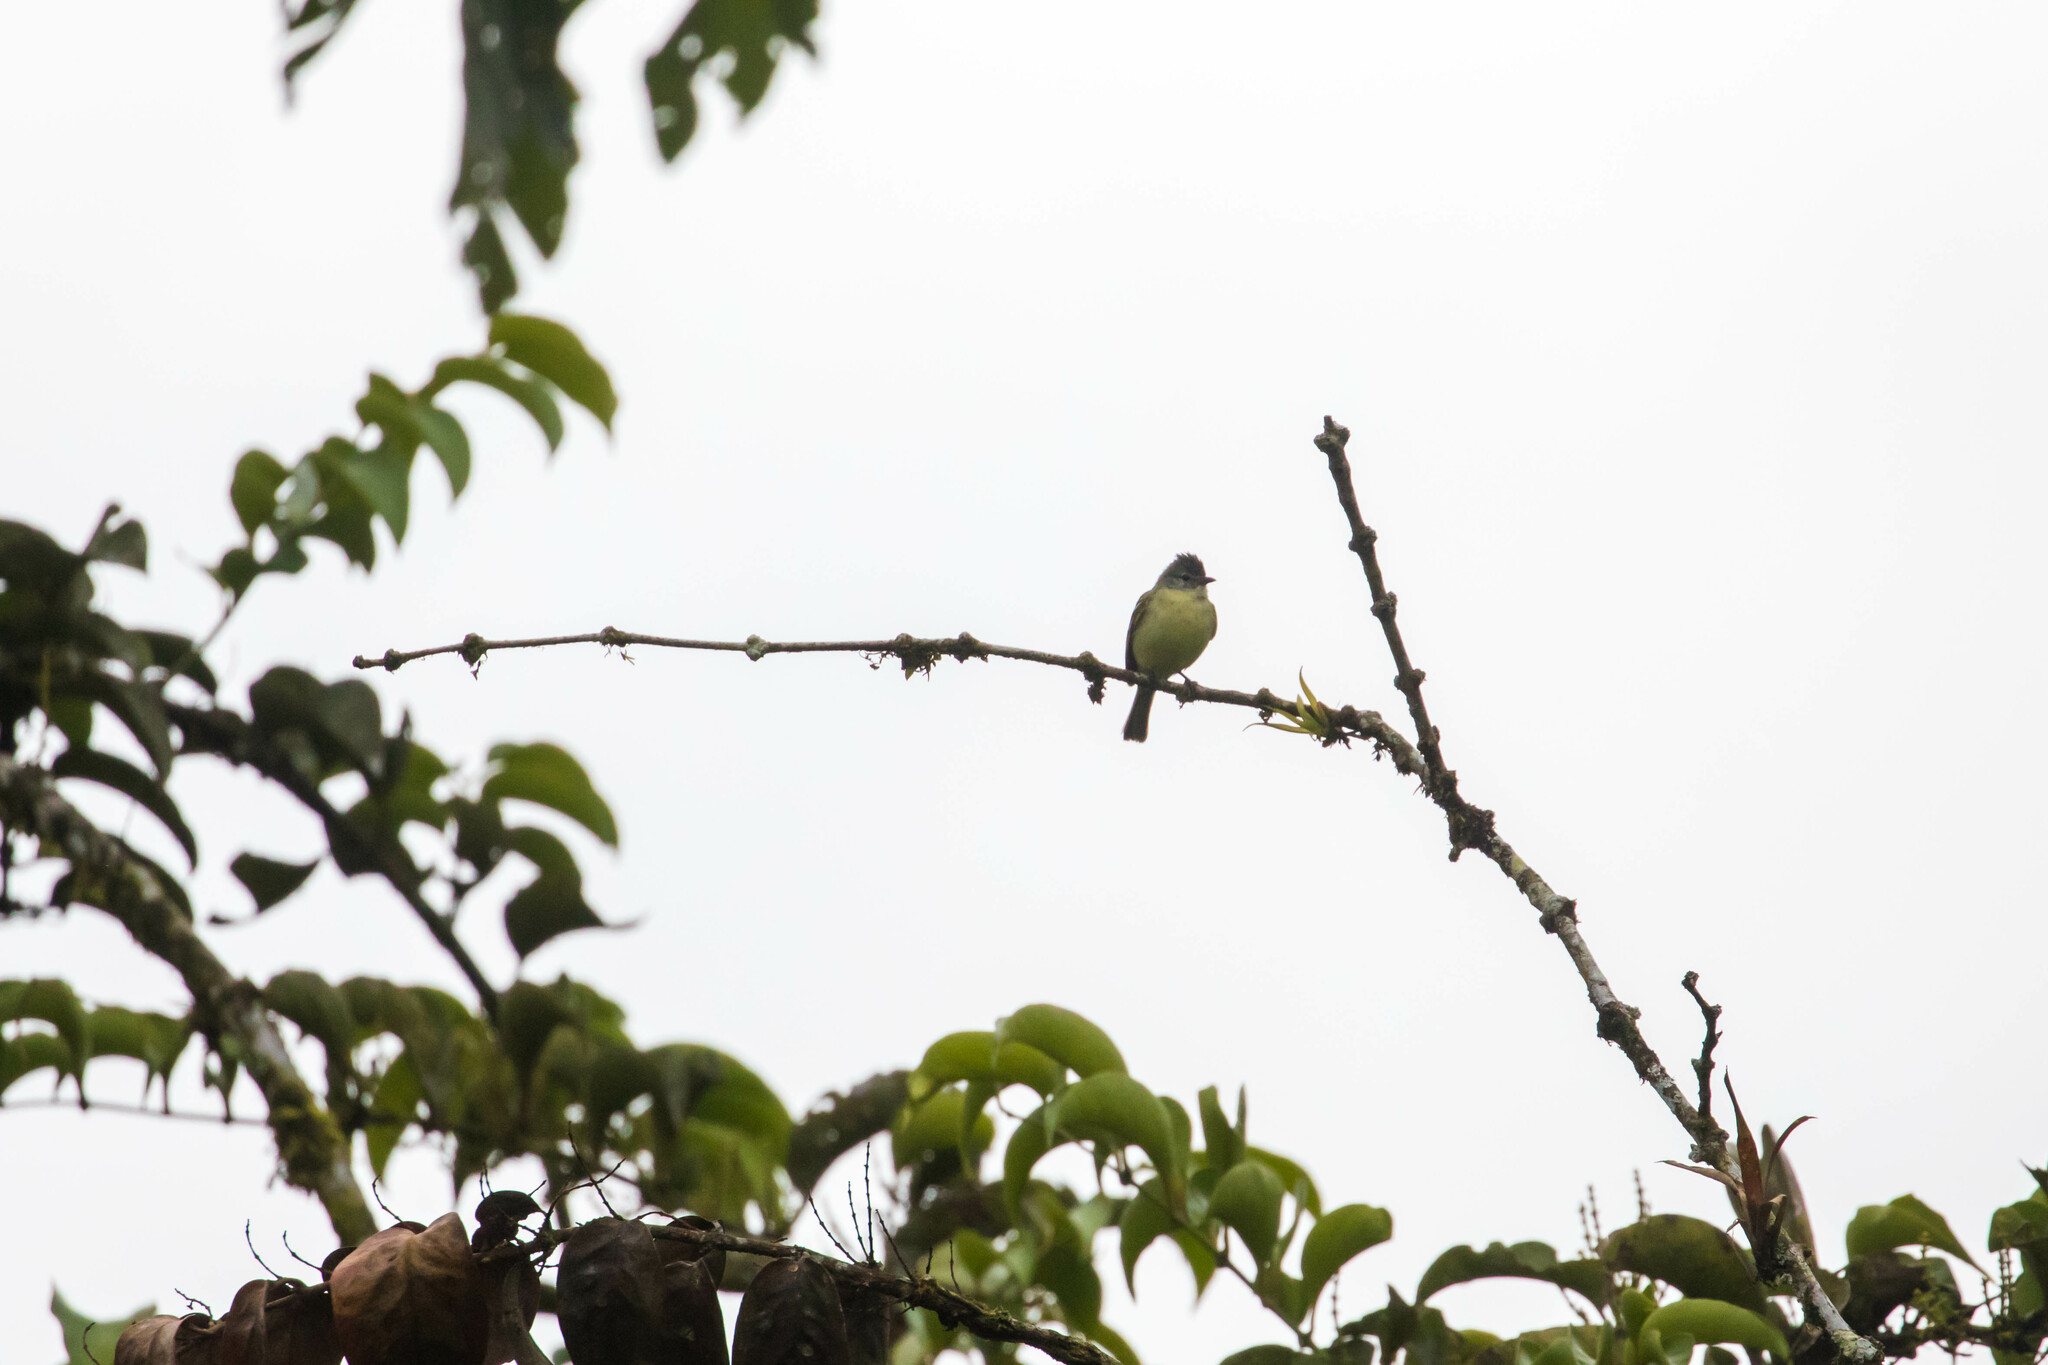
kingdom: Animalia
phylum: Chordata
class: Aves
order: Passeriformes
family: Tyrannidae
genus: Camptostoma
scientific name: Camptostoma obsoletum
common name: Southern beardless-tyrannulet
